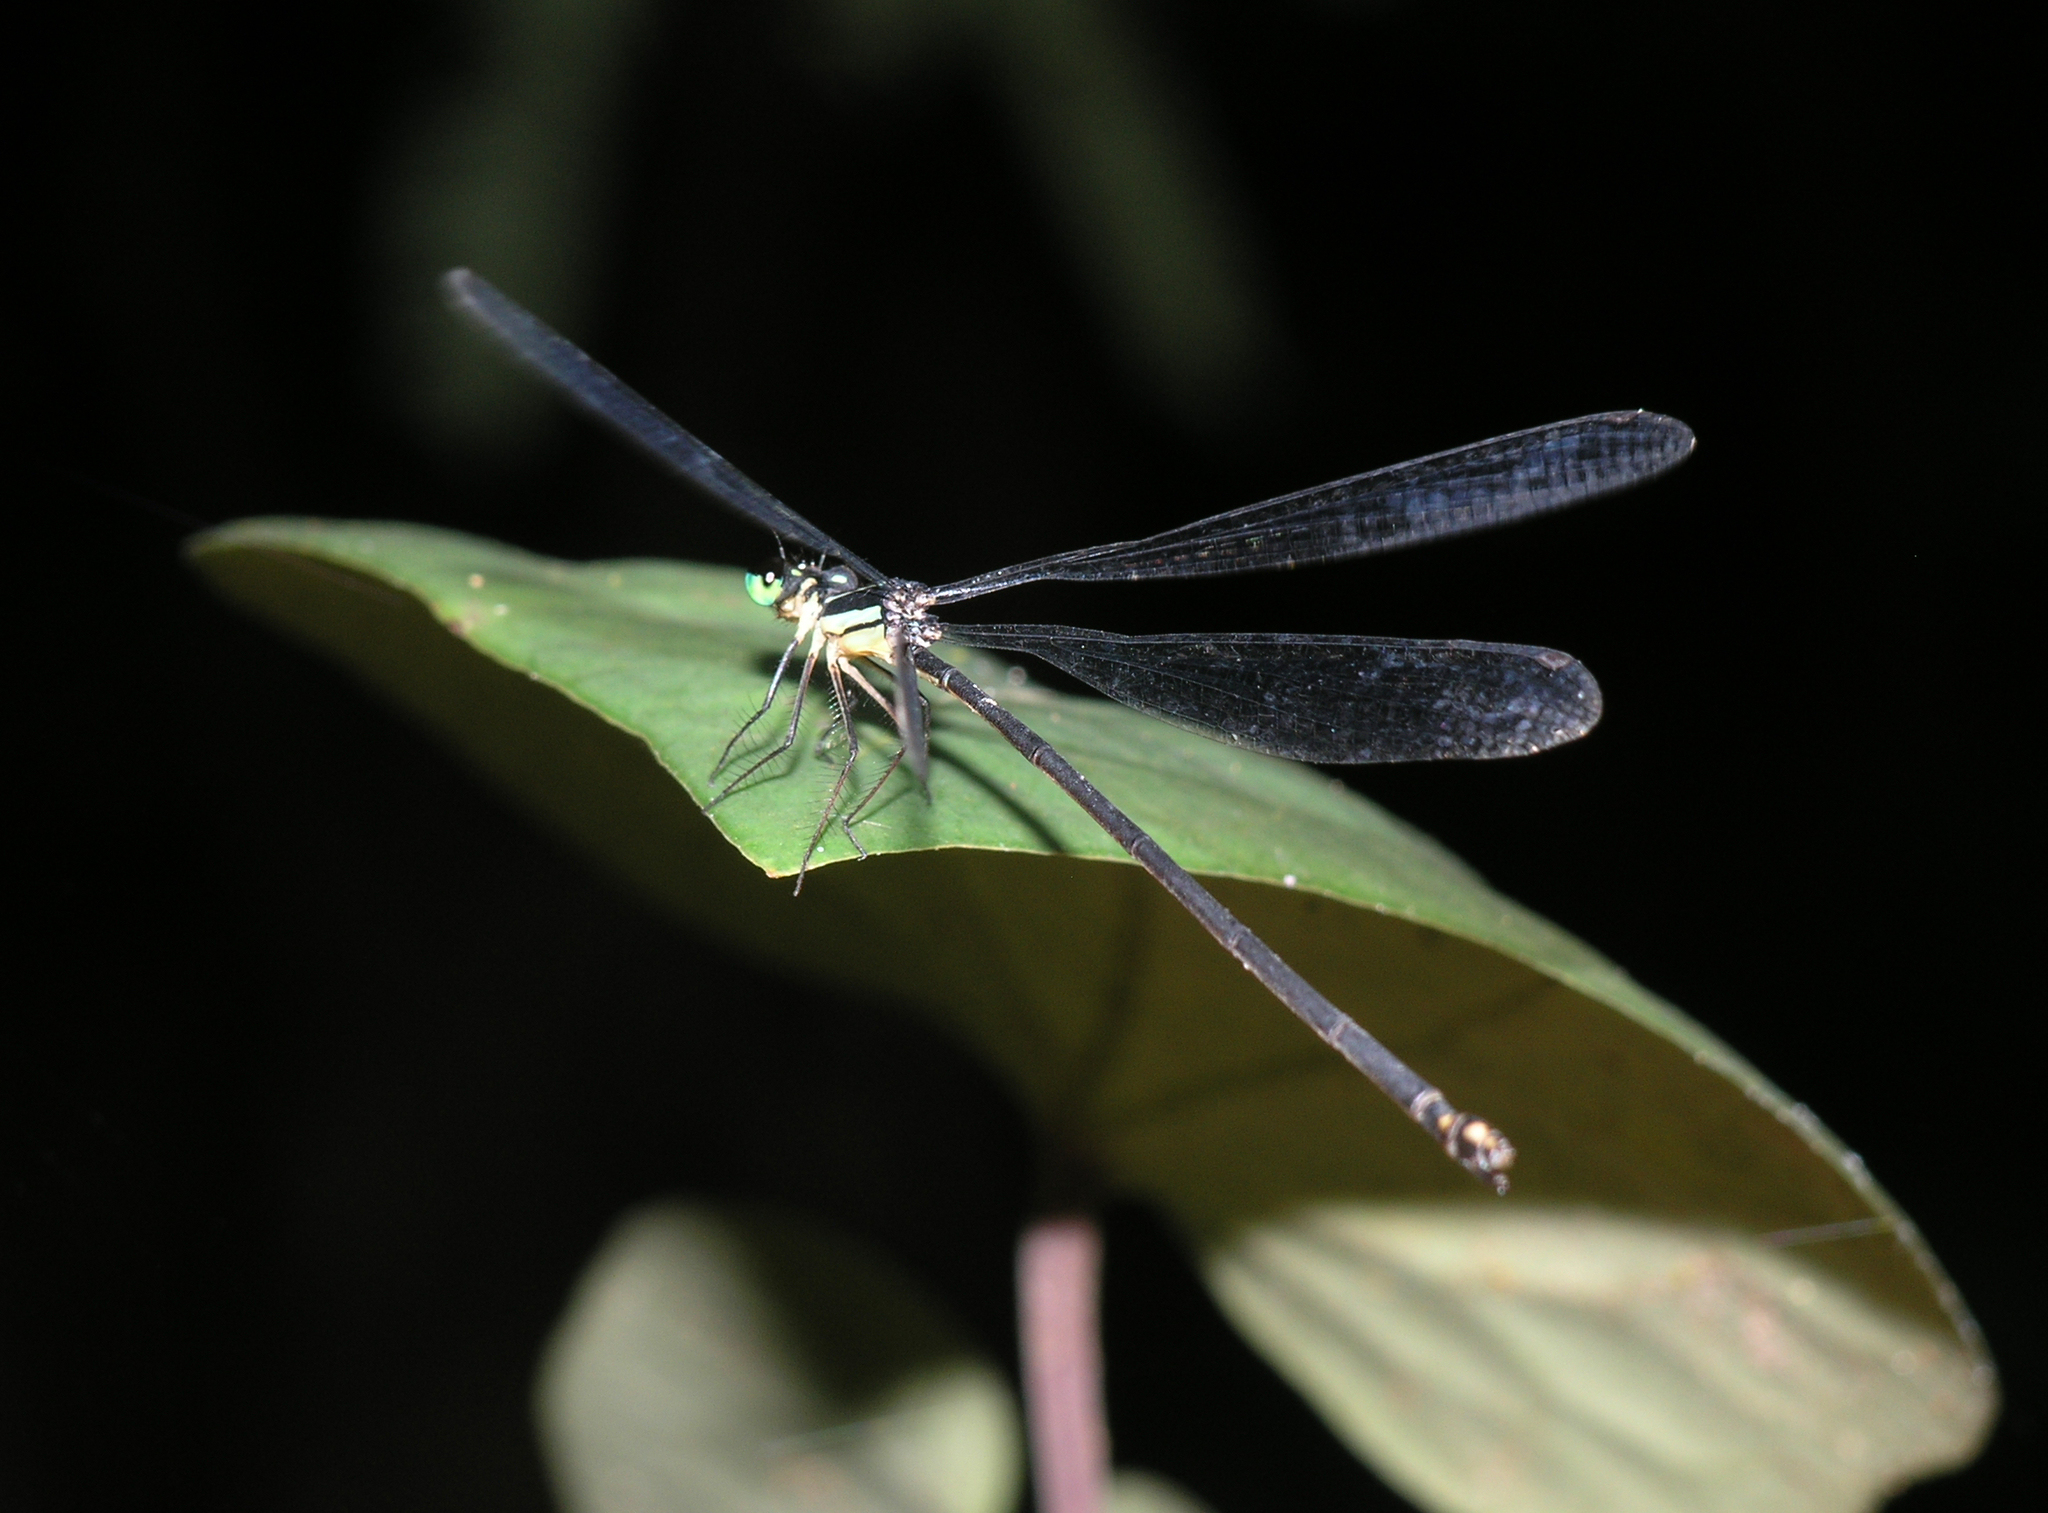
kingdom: Animalia
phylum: Arthropoda
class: Insecta
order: Odonata
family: Platycnemididae
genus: Coeliccia
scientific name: Coeliccia yamasakii
